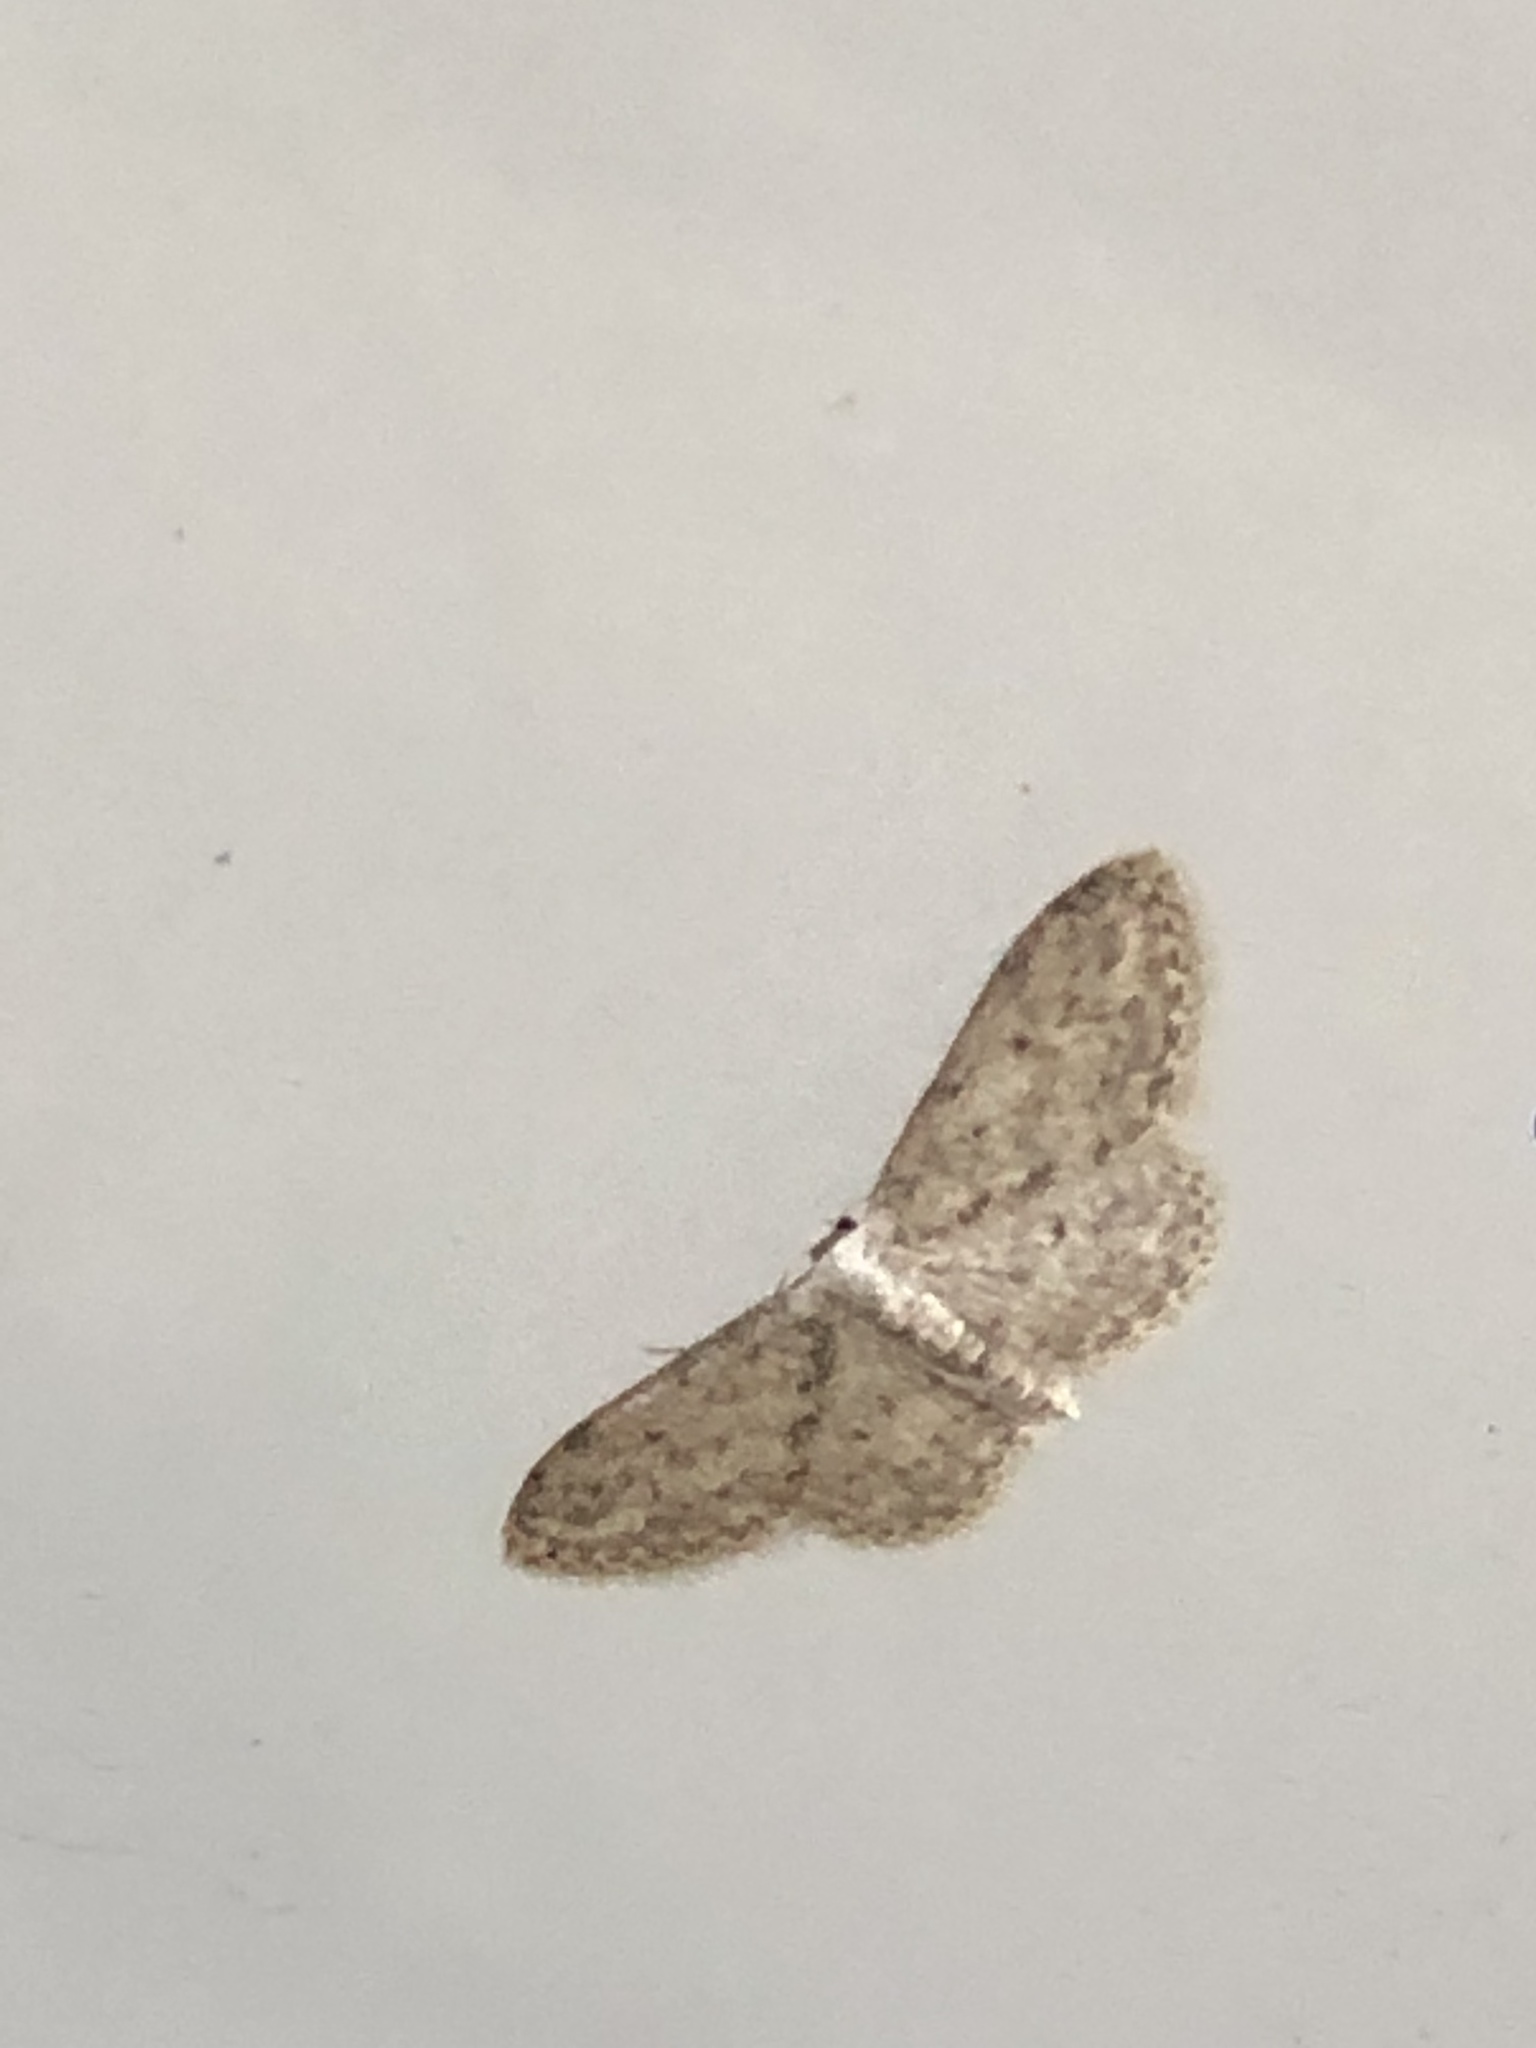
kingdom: Animalia
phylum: Arthropoda
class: Insecta
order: Lepidoptera
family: Geometridae
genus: Idaea
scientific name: Idaea seriata
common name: Small dusty wave
